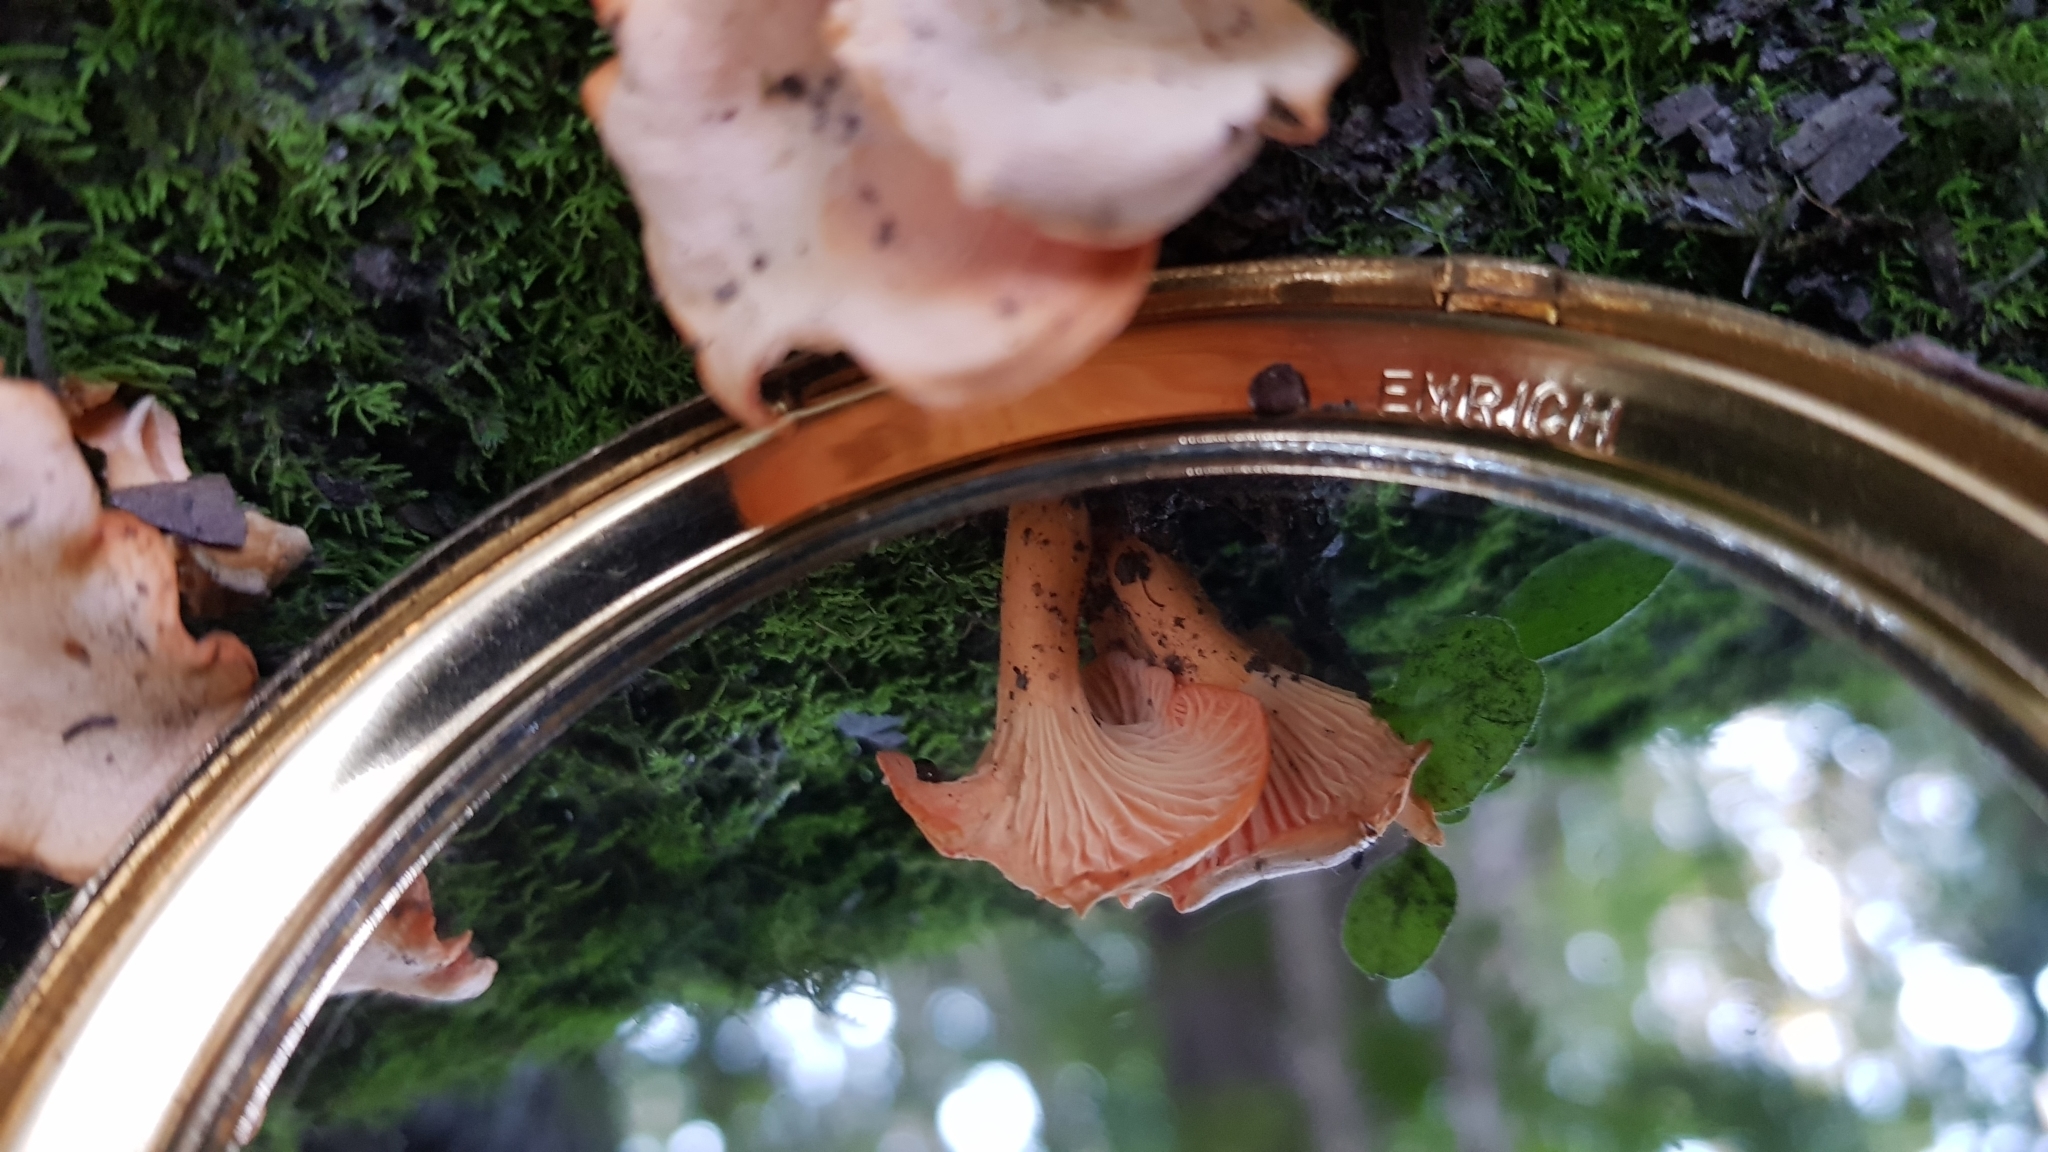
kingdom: Fungi
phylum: Basidiomycota
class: Agaricomycetes
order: Cantharellales
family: Hydnaceae
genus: Cantharellus
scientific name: Cantharellus
